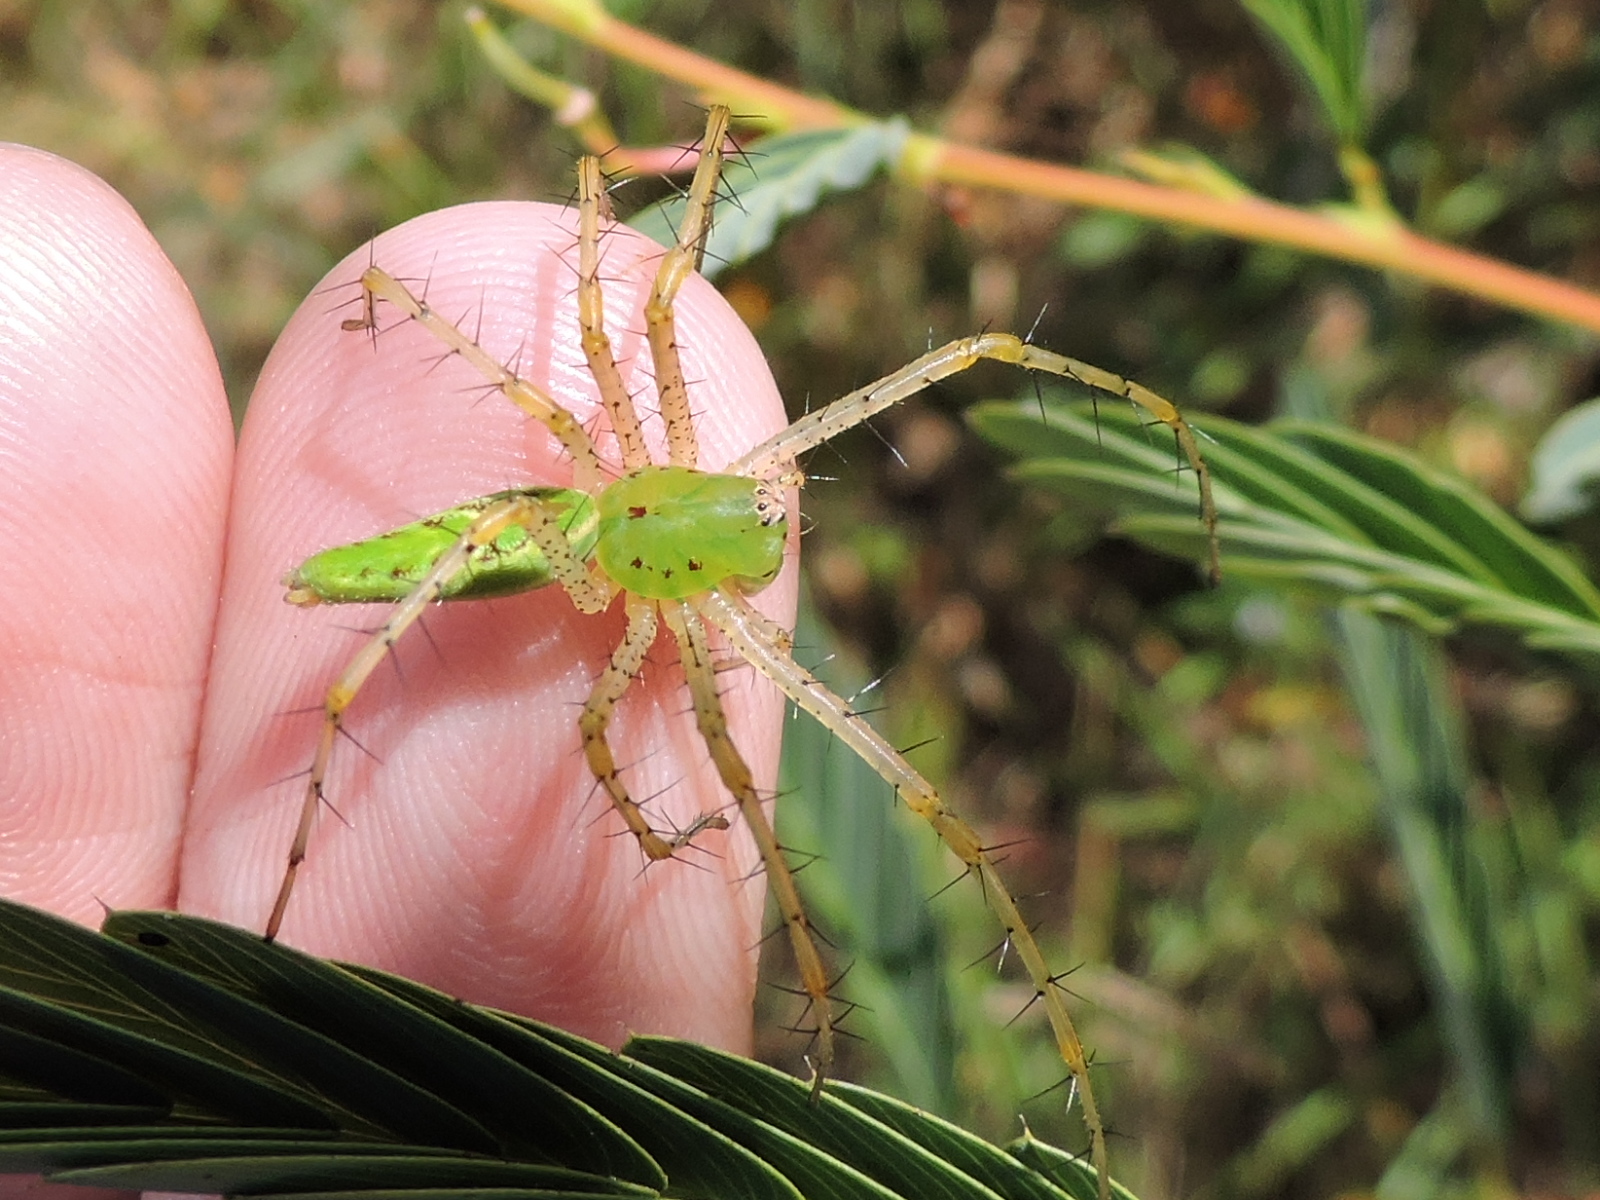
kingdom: Animalia
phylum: Arthropoda
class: Arachnida
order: Araneae
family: Oxyopidae
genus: Peucetia
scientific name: Peucetia viridans
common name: Lynx spiders
